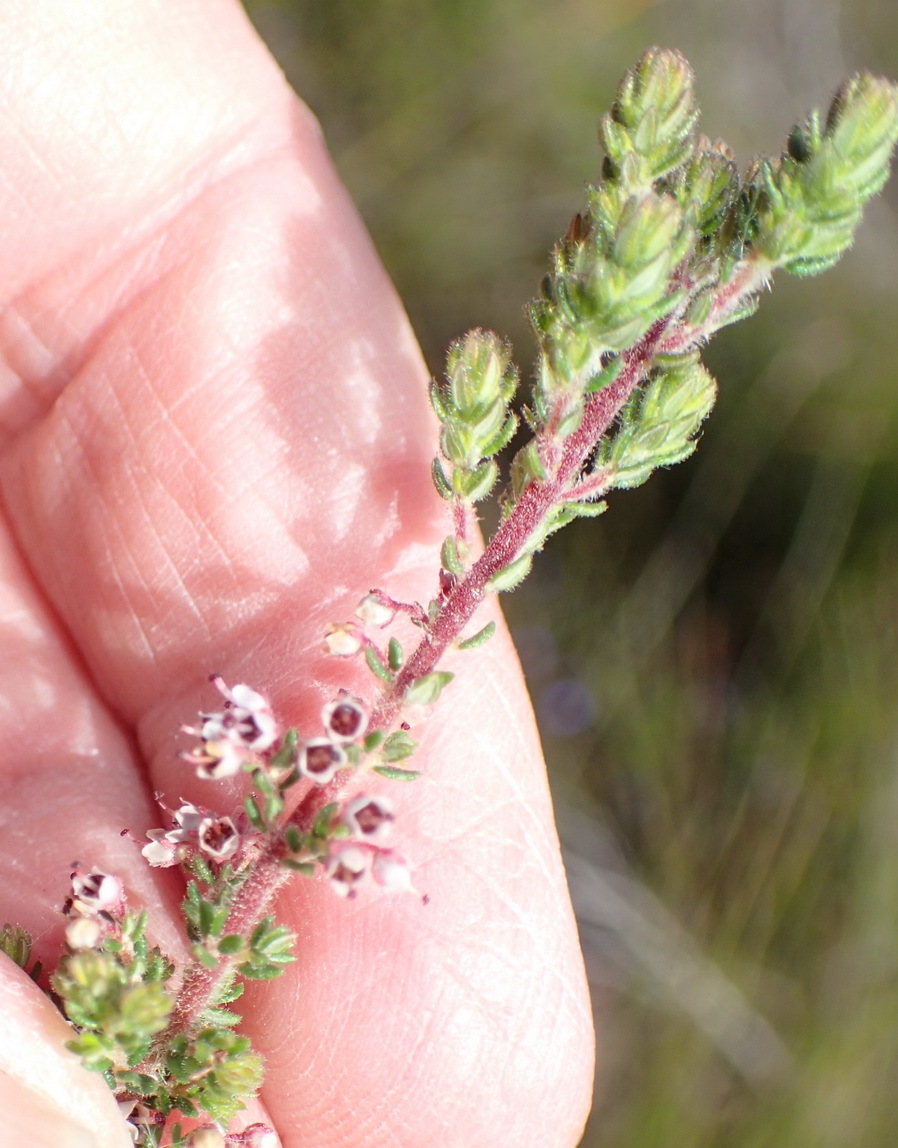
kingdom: Plantae
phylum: Tracheophyta
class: Magnoliopsida
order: Ericales
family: Ericaceae
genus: Erica
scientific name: Erica copiosa
